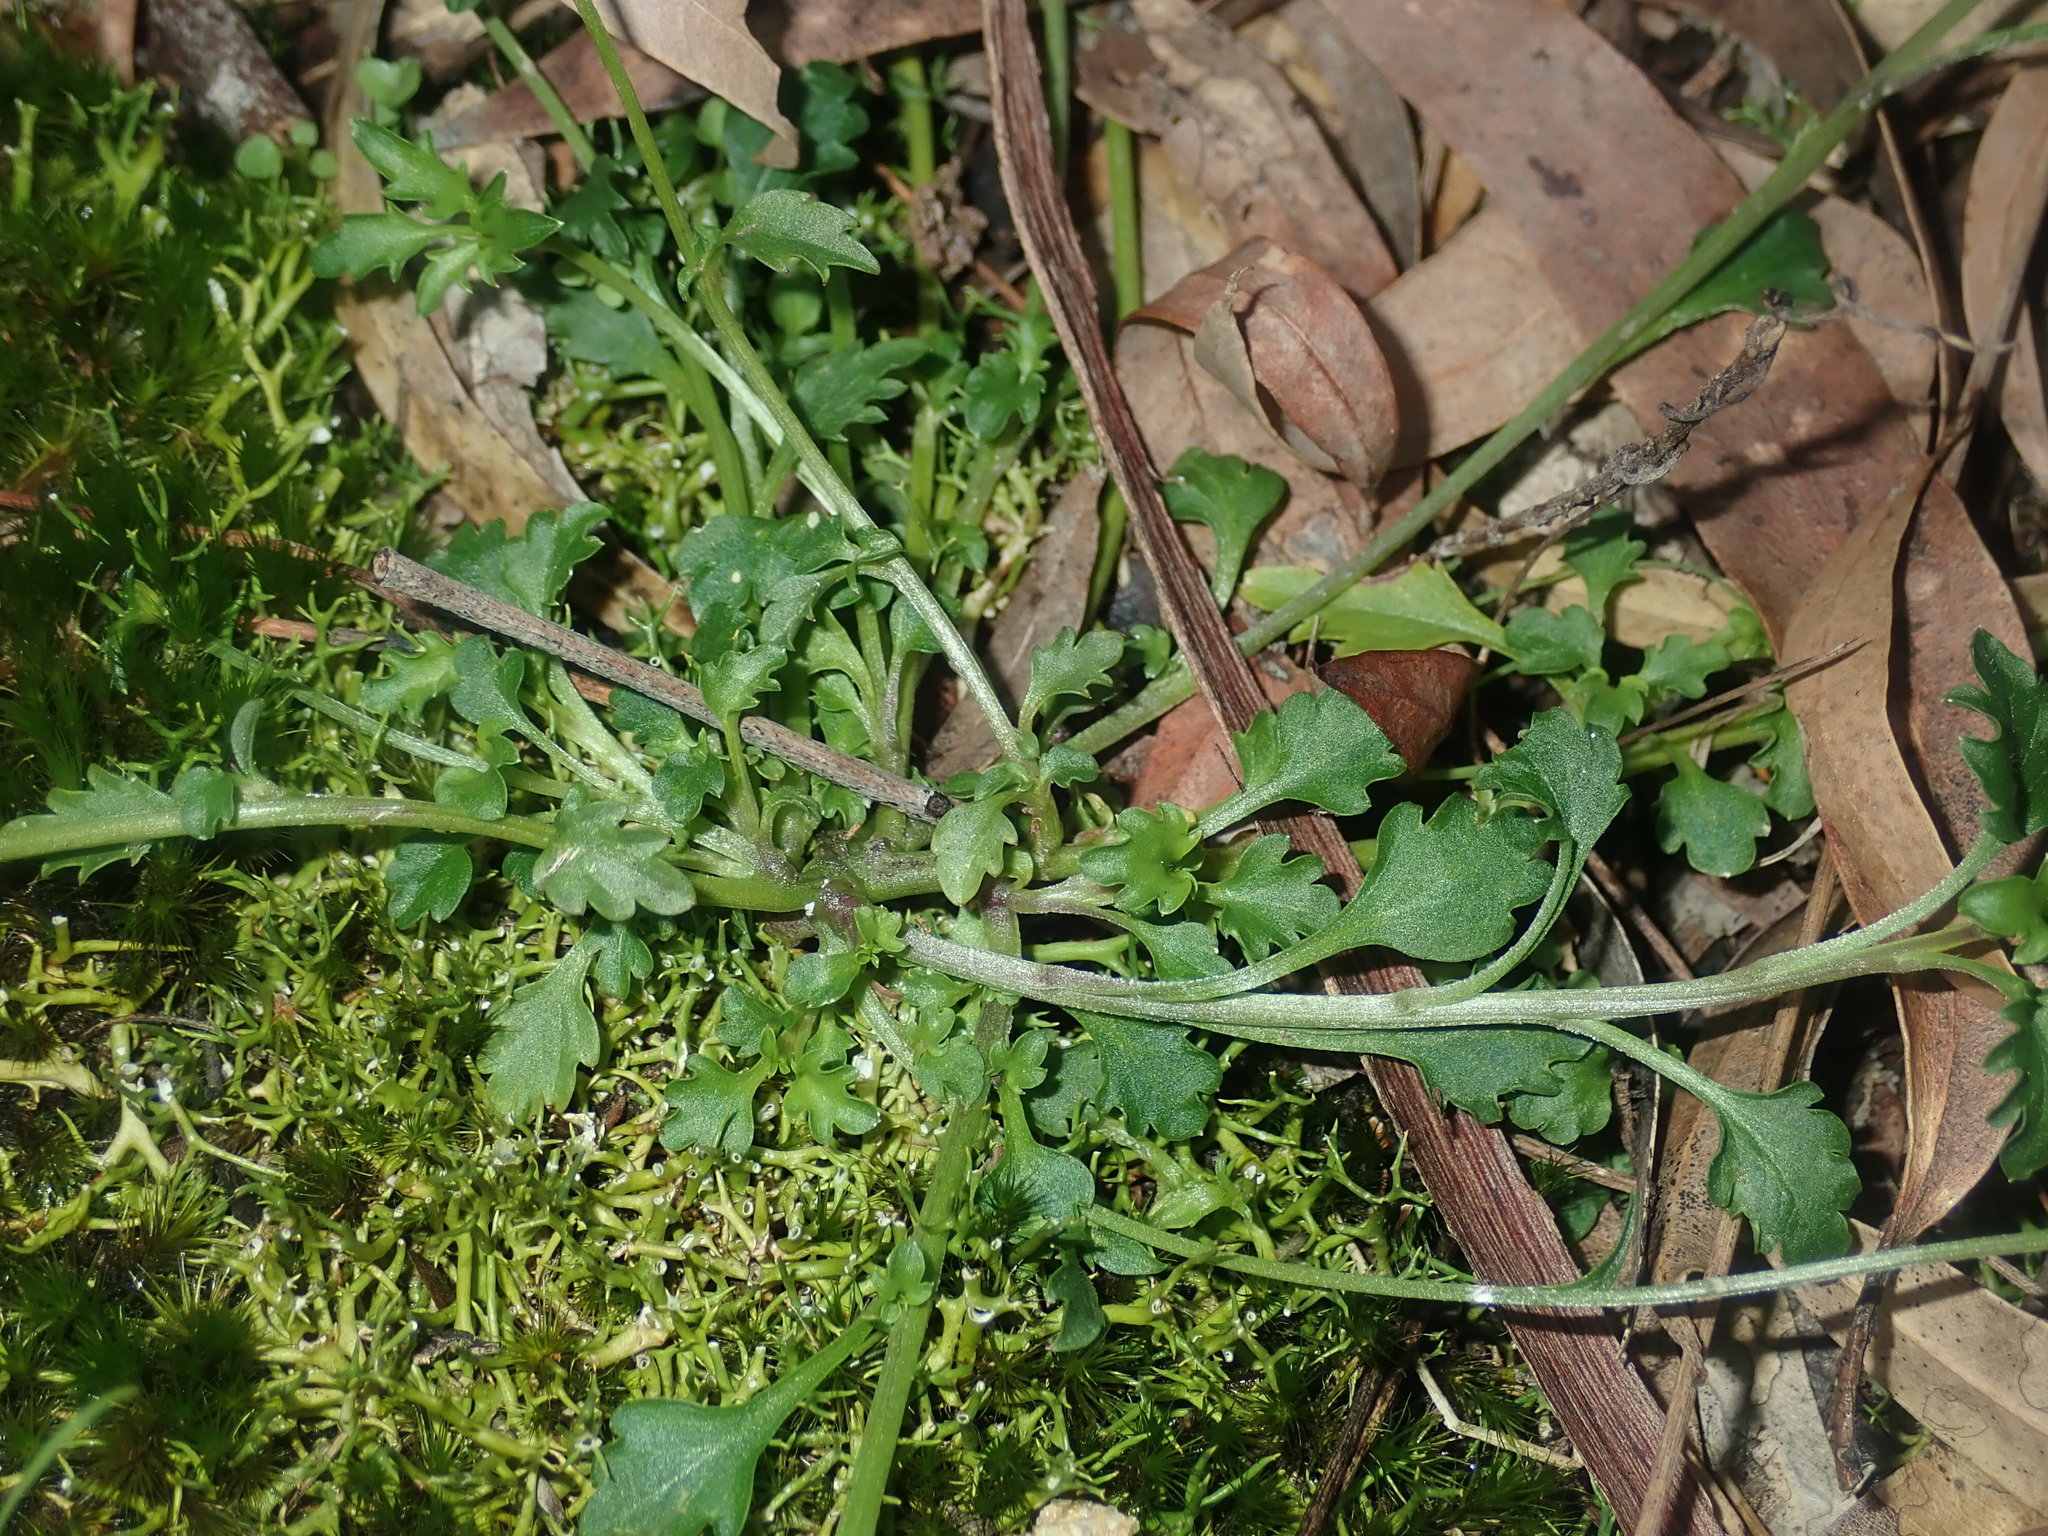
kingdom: Plantae
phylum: Tracheophyta
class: Magnoliopsida
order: Asterales
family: Campanulaceae
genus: Lobelia
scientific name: Lobelia andrewsii
